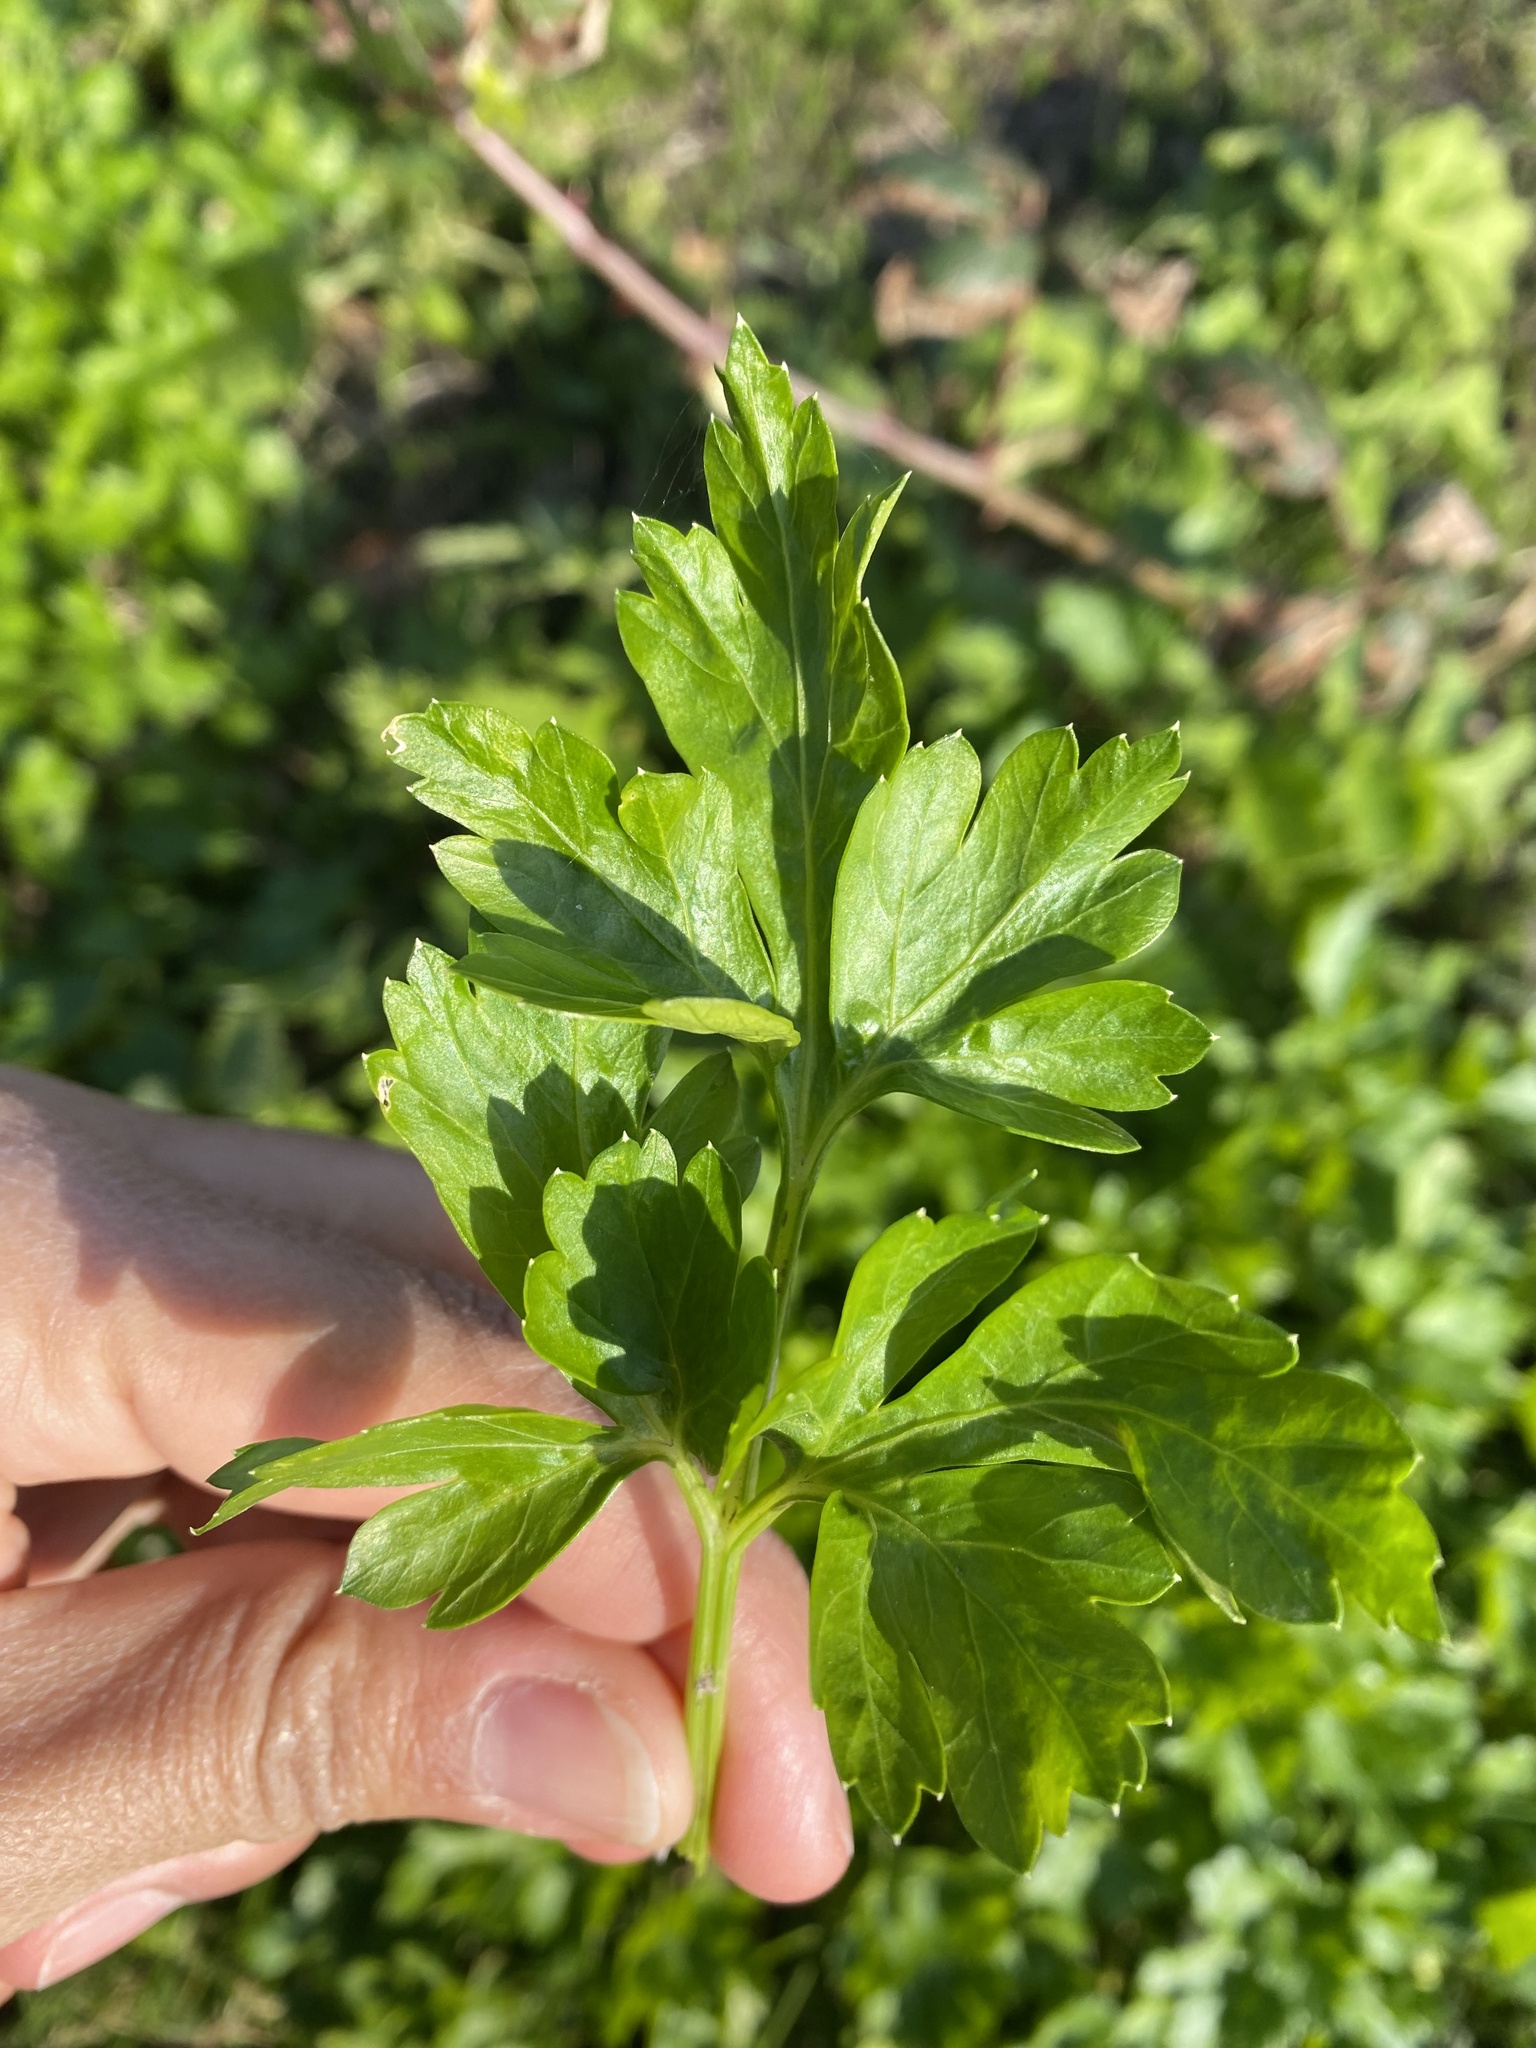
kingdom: Plantae
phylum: Tracheophyta
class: Magnoliopsida
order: Apiales
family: Apiaceae
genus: Apium
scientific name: Apium graveolens
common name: Wild celery
